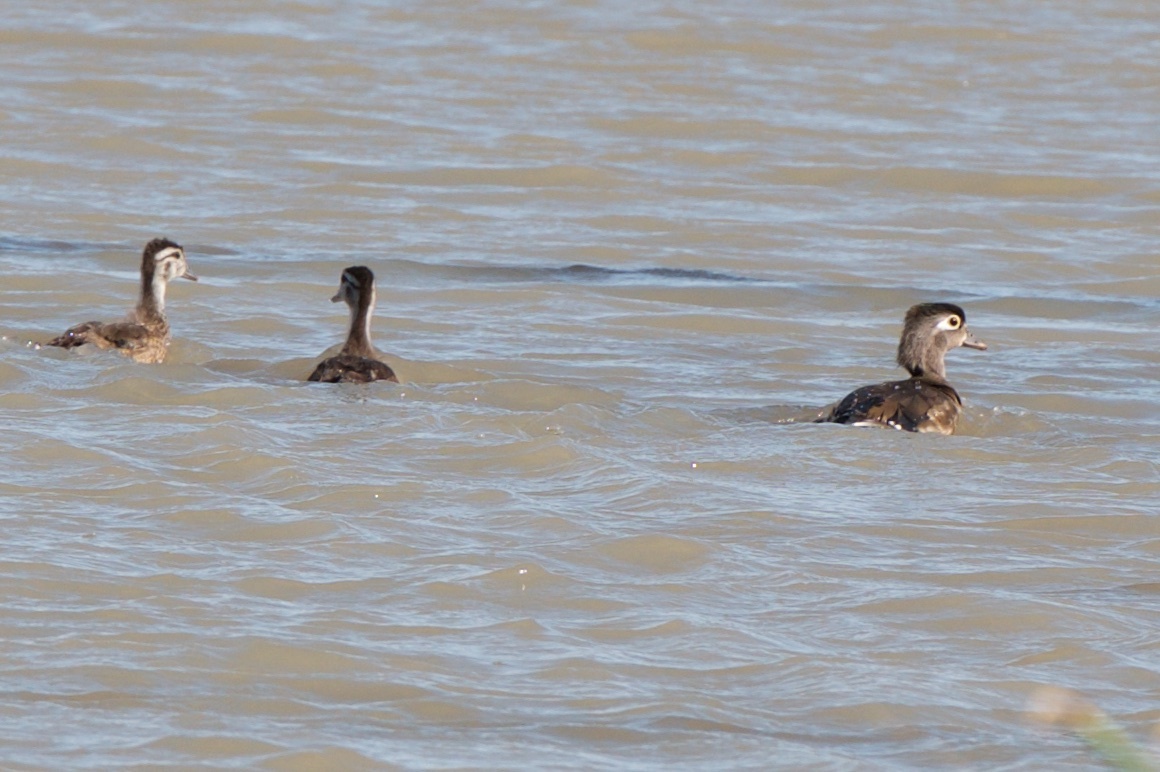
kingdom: Animalia
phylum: Chordata
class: Aves
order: Anseriformes
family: Anatidae
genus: Aix
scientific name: Aix sponsa
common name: Wood duck
